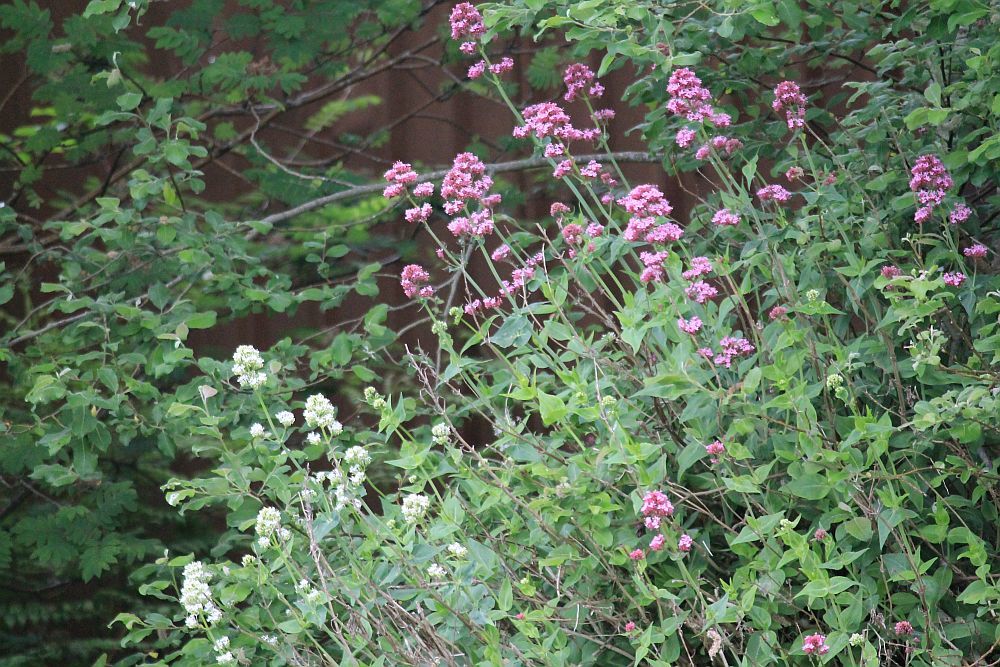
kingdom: Plantae
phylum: Tracheophyta
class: Magnoliopsida
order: Dipsacales
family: Caprifoliaceae
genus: Centranthus
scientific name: Centranthus ruber
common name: Red valerian
